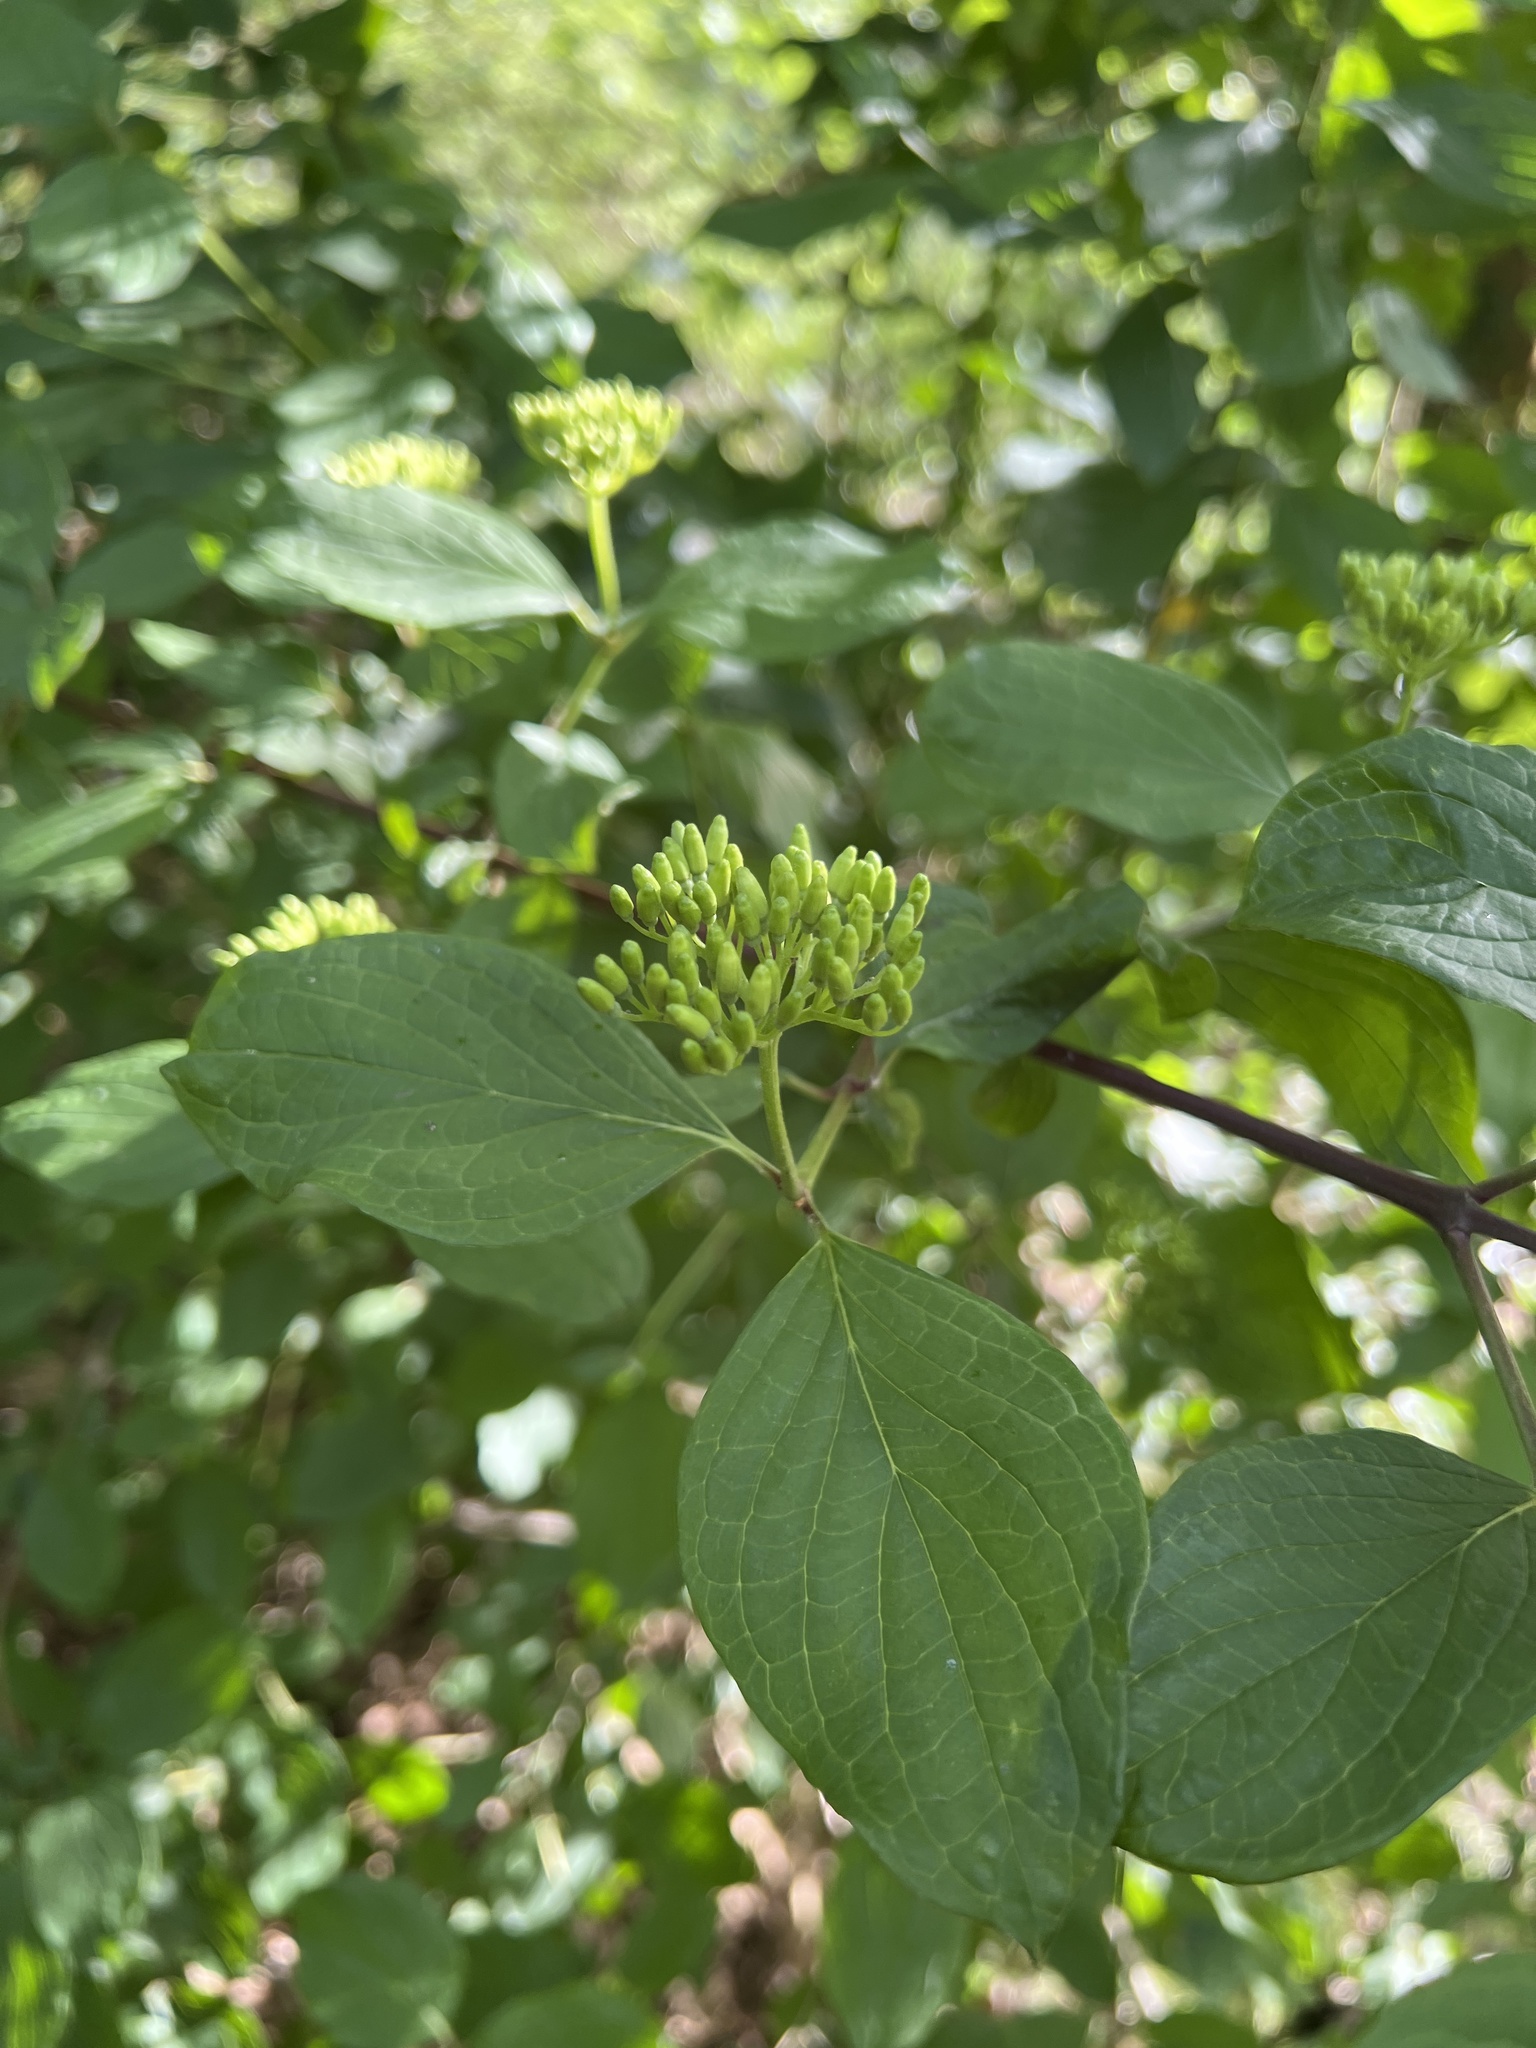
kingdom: Plantae
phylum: Tracheophyta
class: Magnoliopsida
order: Cornales
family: Cornaceae
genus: Cornus
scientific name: Cornus sanguinea
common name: Dogwood
